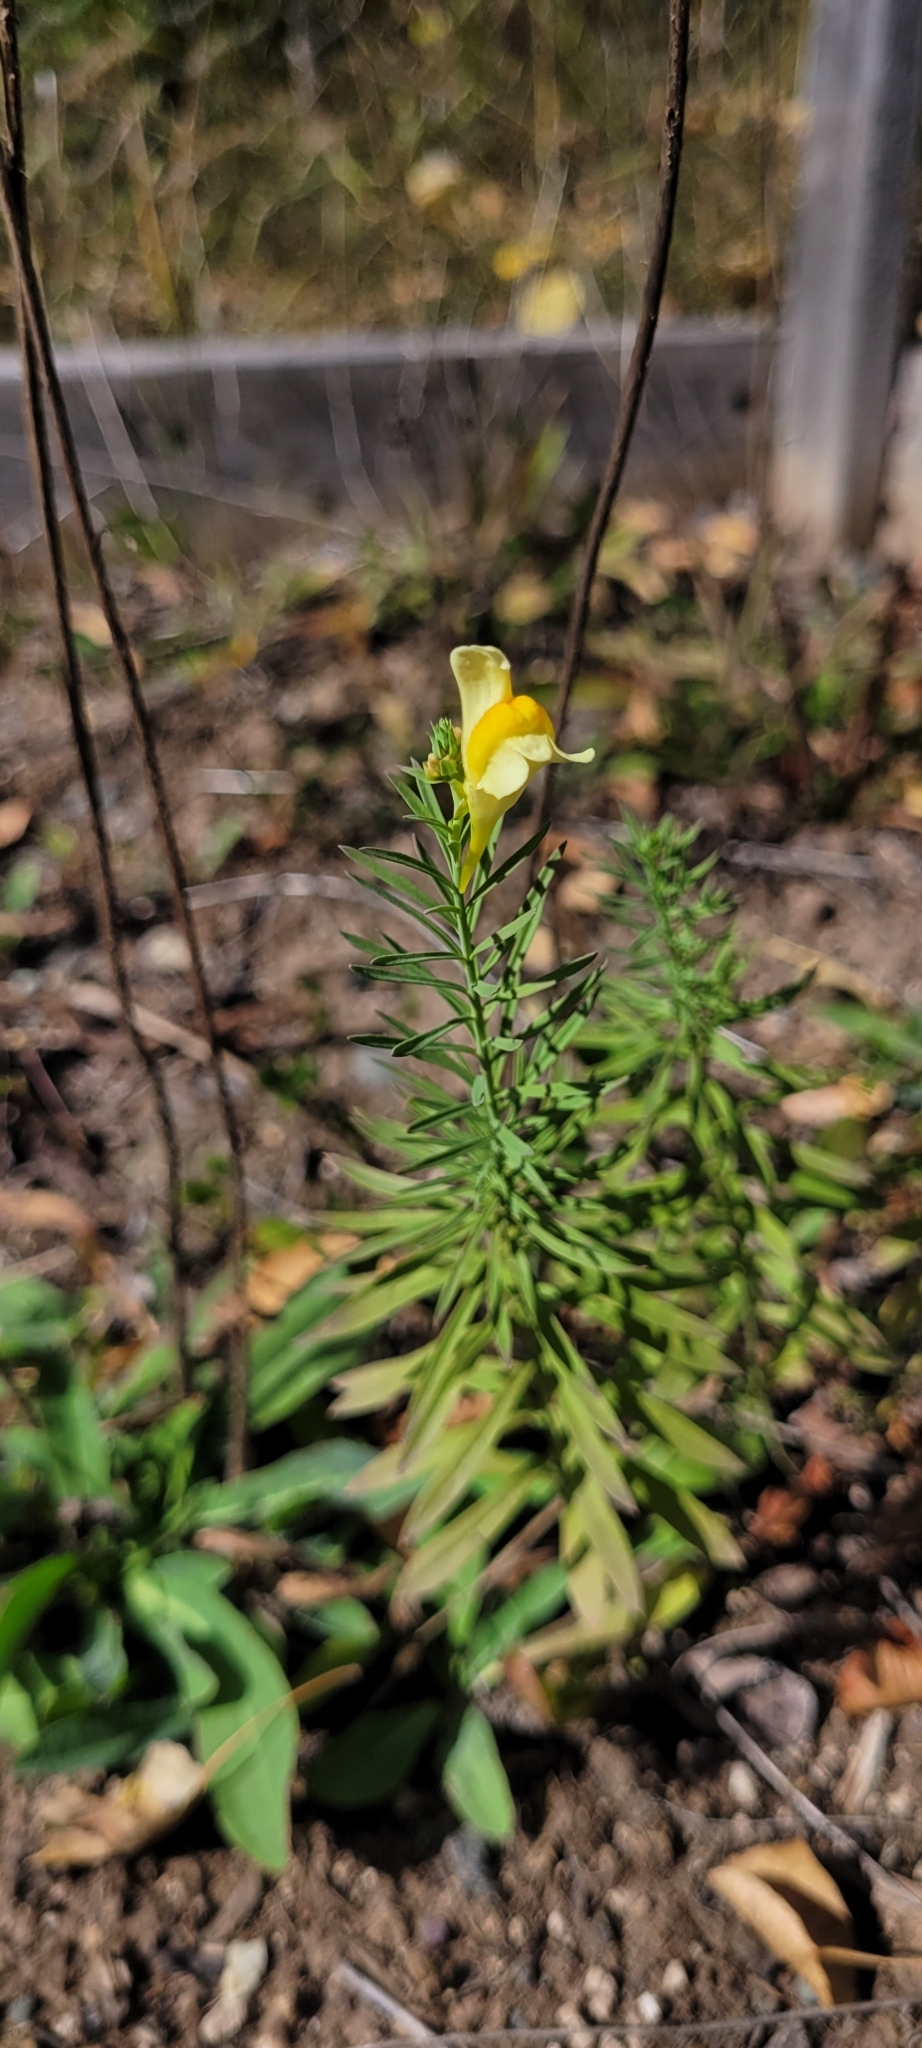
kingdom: Plantae
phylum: Tracheophyta
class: Magnoliopsida
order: Lamiales
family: Plantaginaceae
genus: Linaria
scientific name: Linaria vulgaris
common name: Butter and eggs
